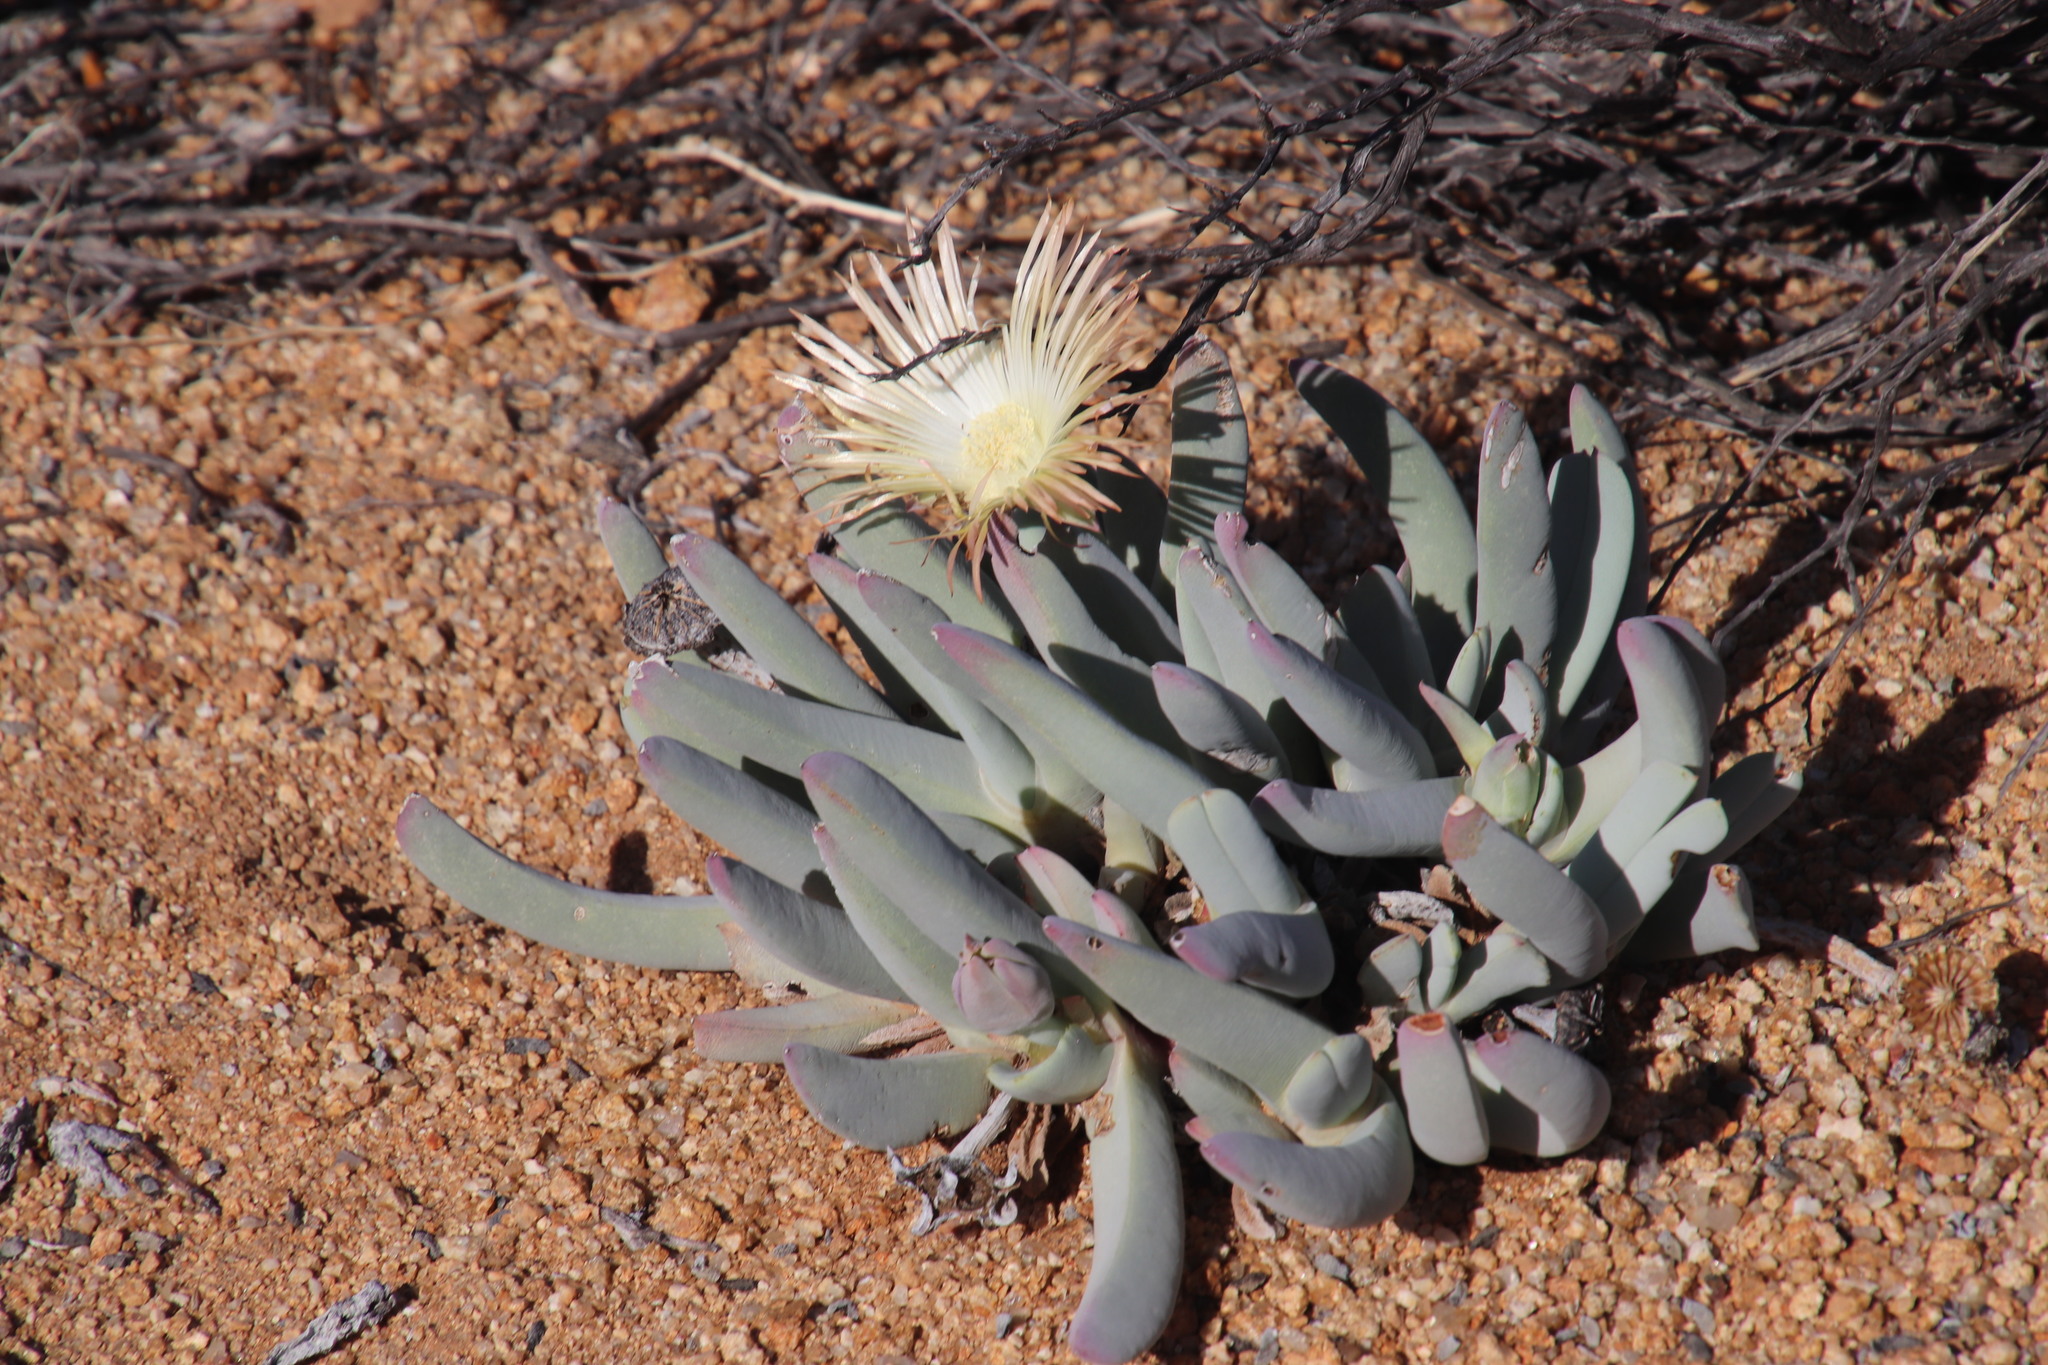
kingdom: Plantae
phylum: Tracheophyta
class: Magnoliopsida
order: Caryophyllales
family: Aizoaceae
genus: Cheiridopsis
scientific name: Cheiridopsis denticulata
